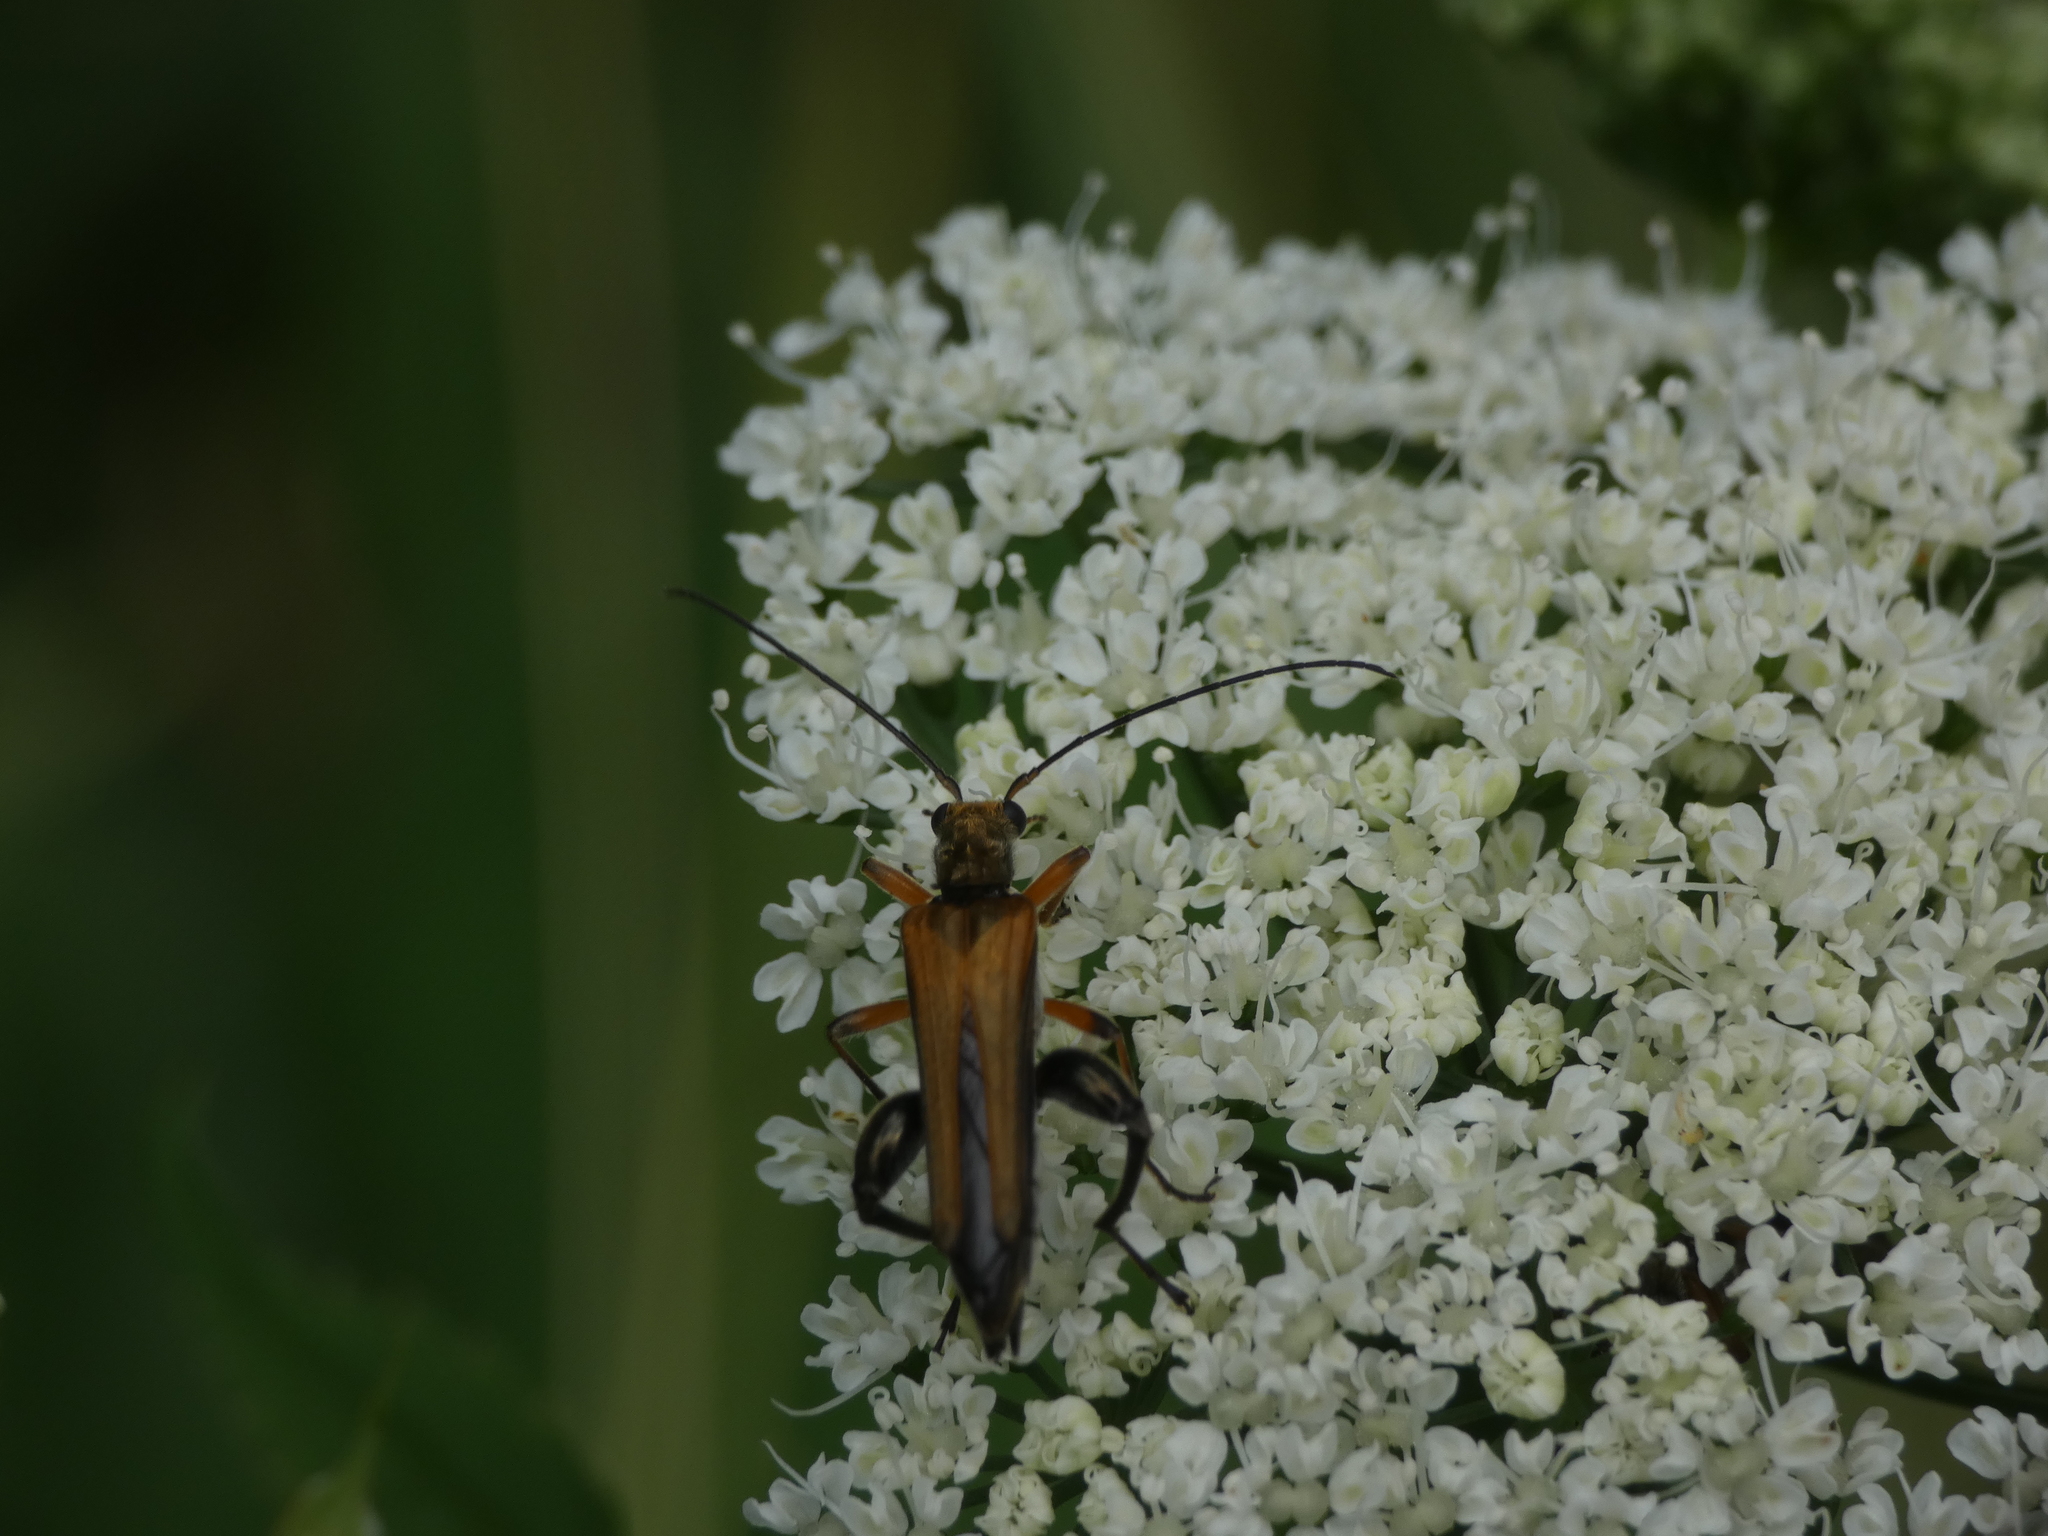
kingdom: Animalia
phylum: Arthropoda
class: Insecta
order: Coleoptera
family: Oedemeridae
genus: Oedemera
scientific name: Oedemera podagrariae
